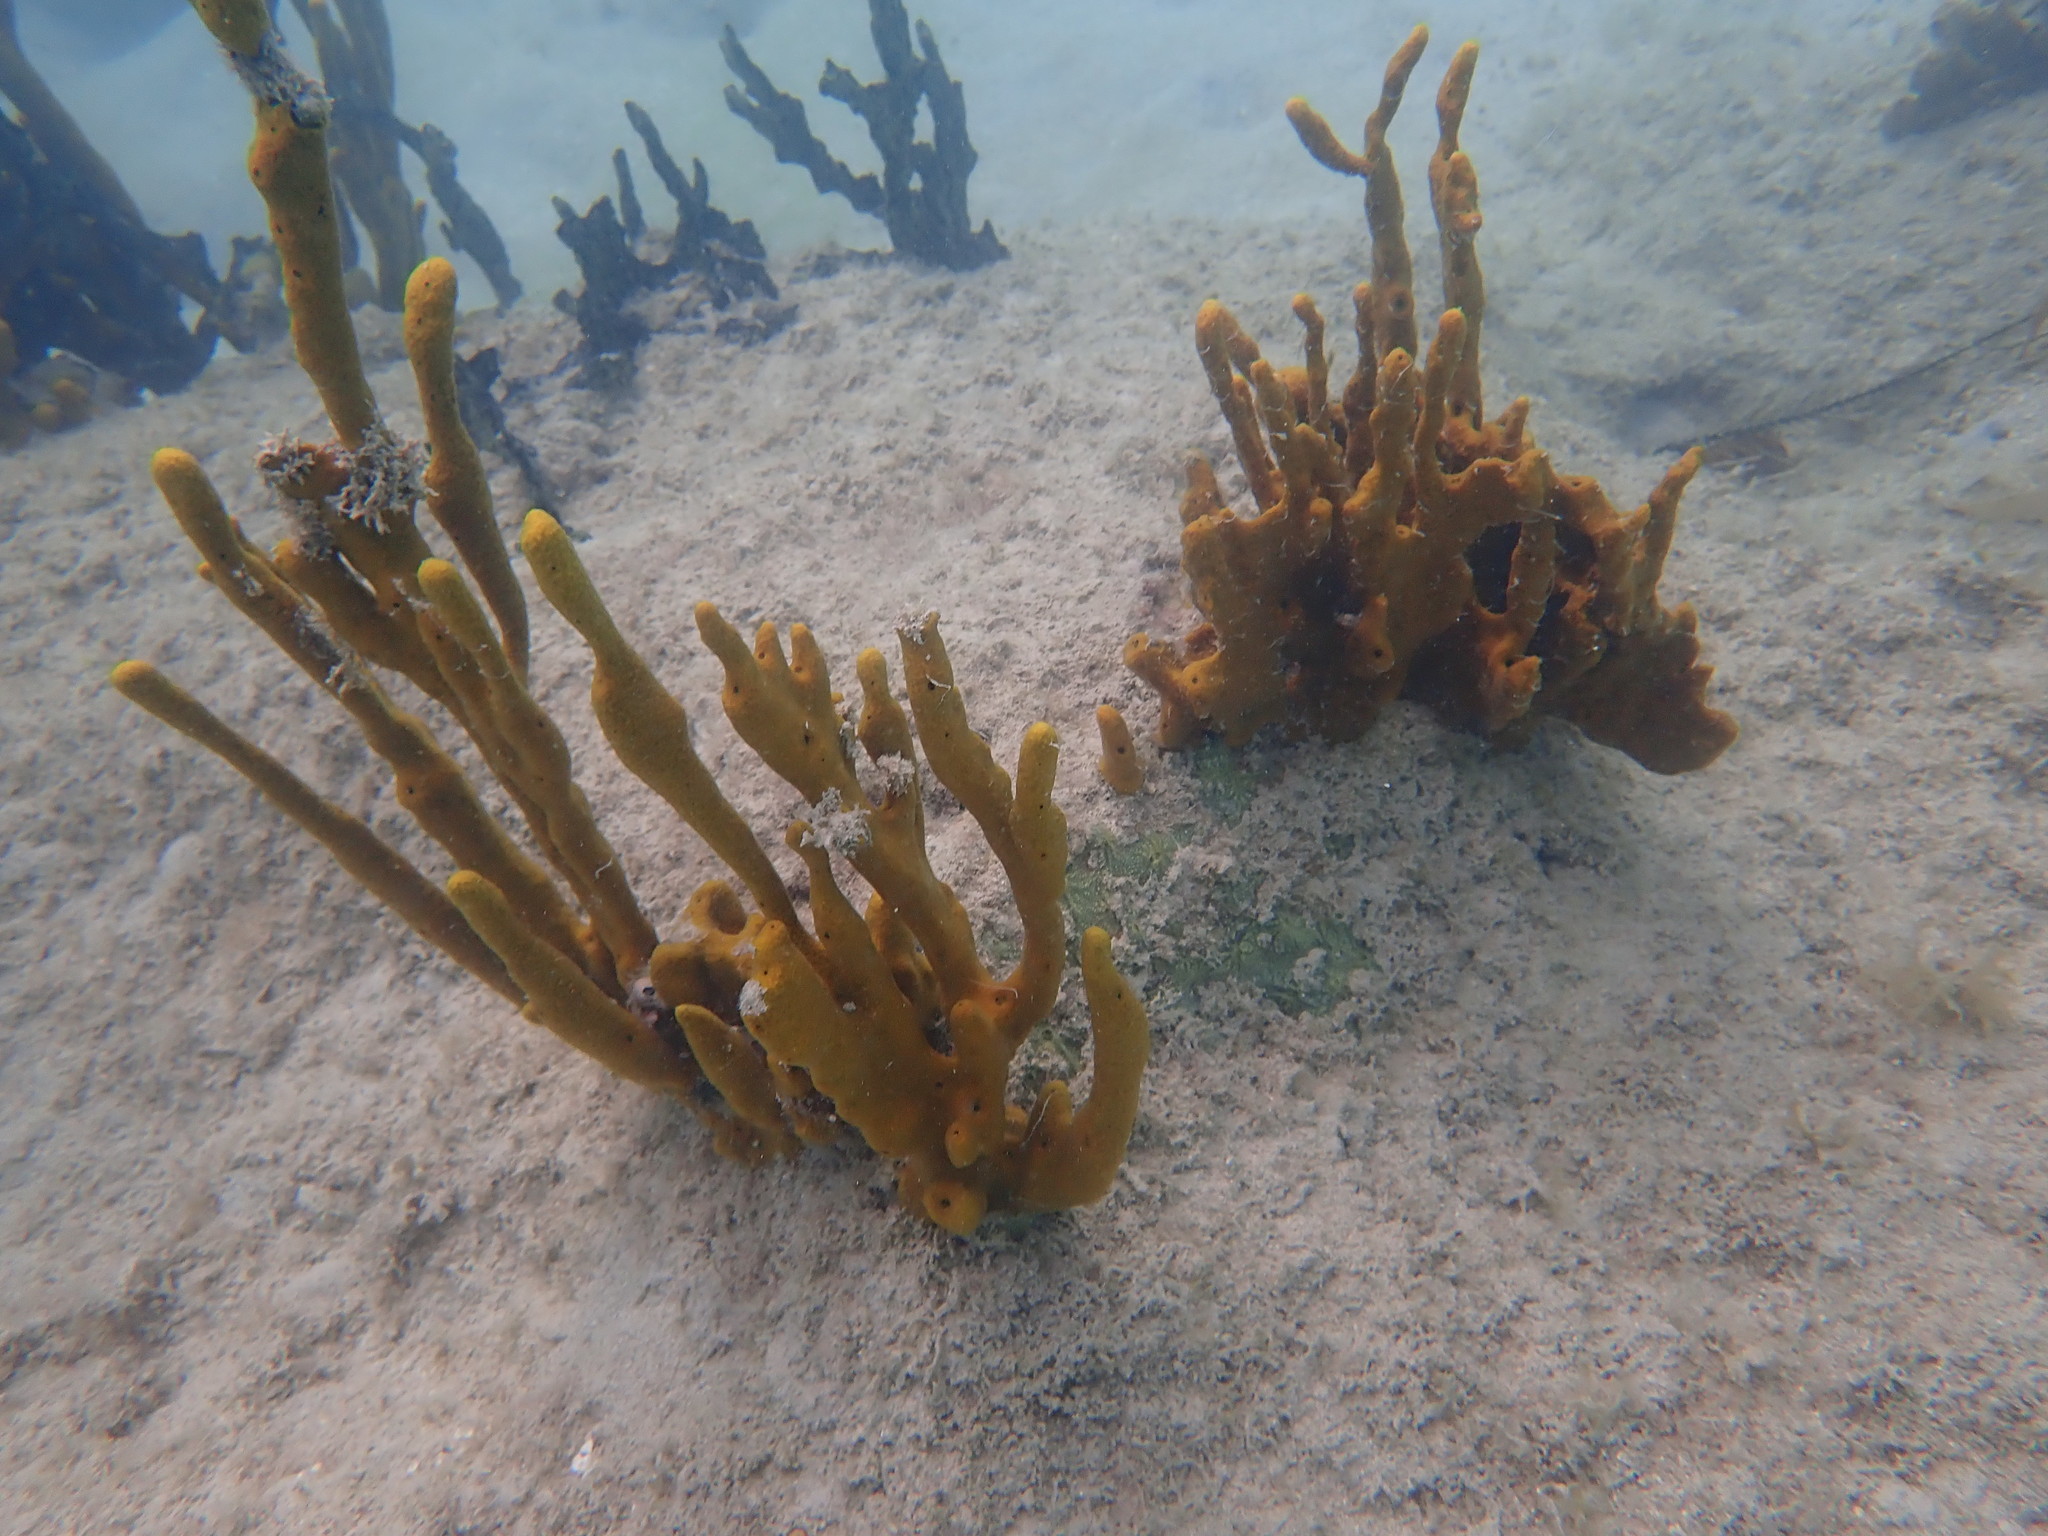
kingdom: Animalia
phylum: Porifera
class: Demospongiae
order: Verongiida
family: Aplysinidae
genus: Aplysina
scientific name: Aplysina fulva
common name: Scattered pore rope sponge
